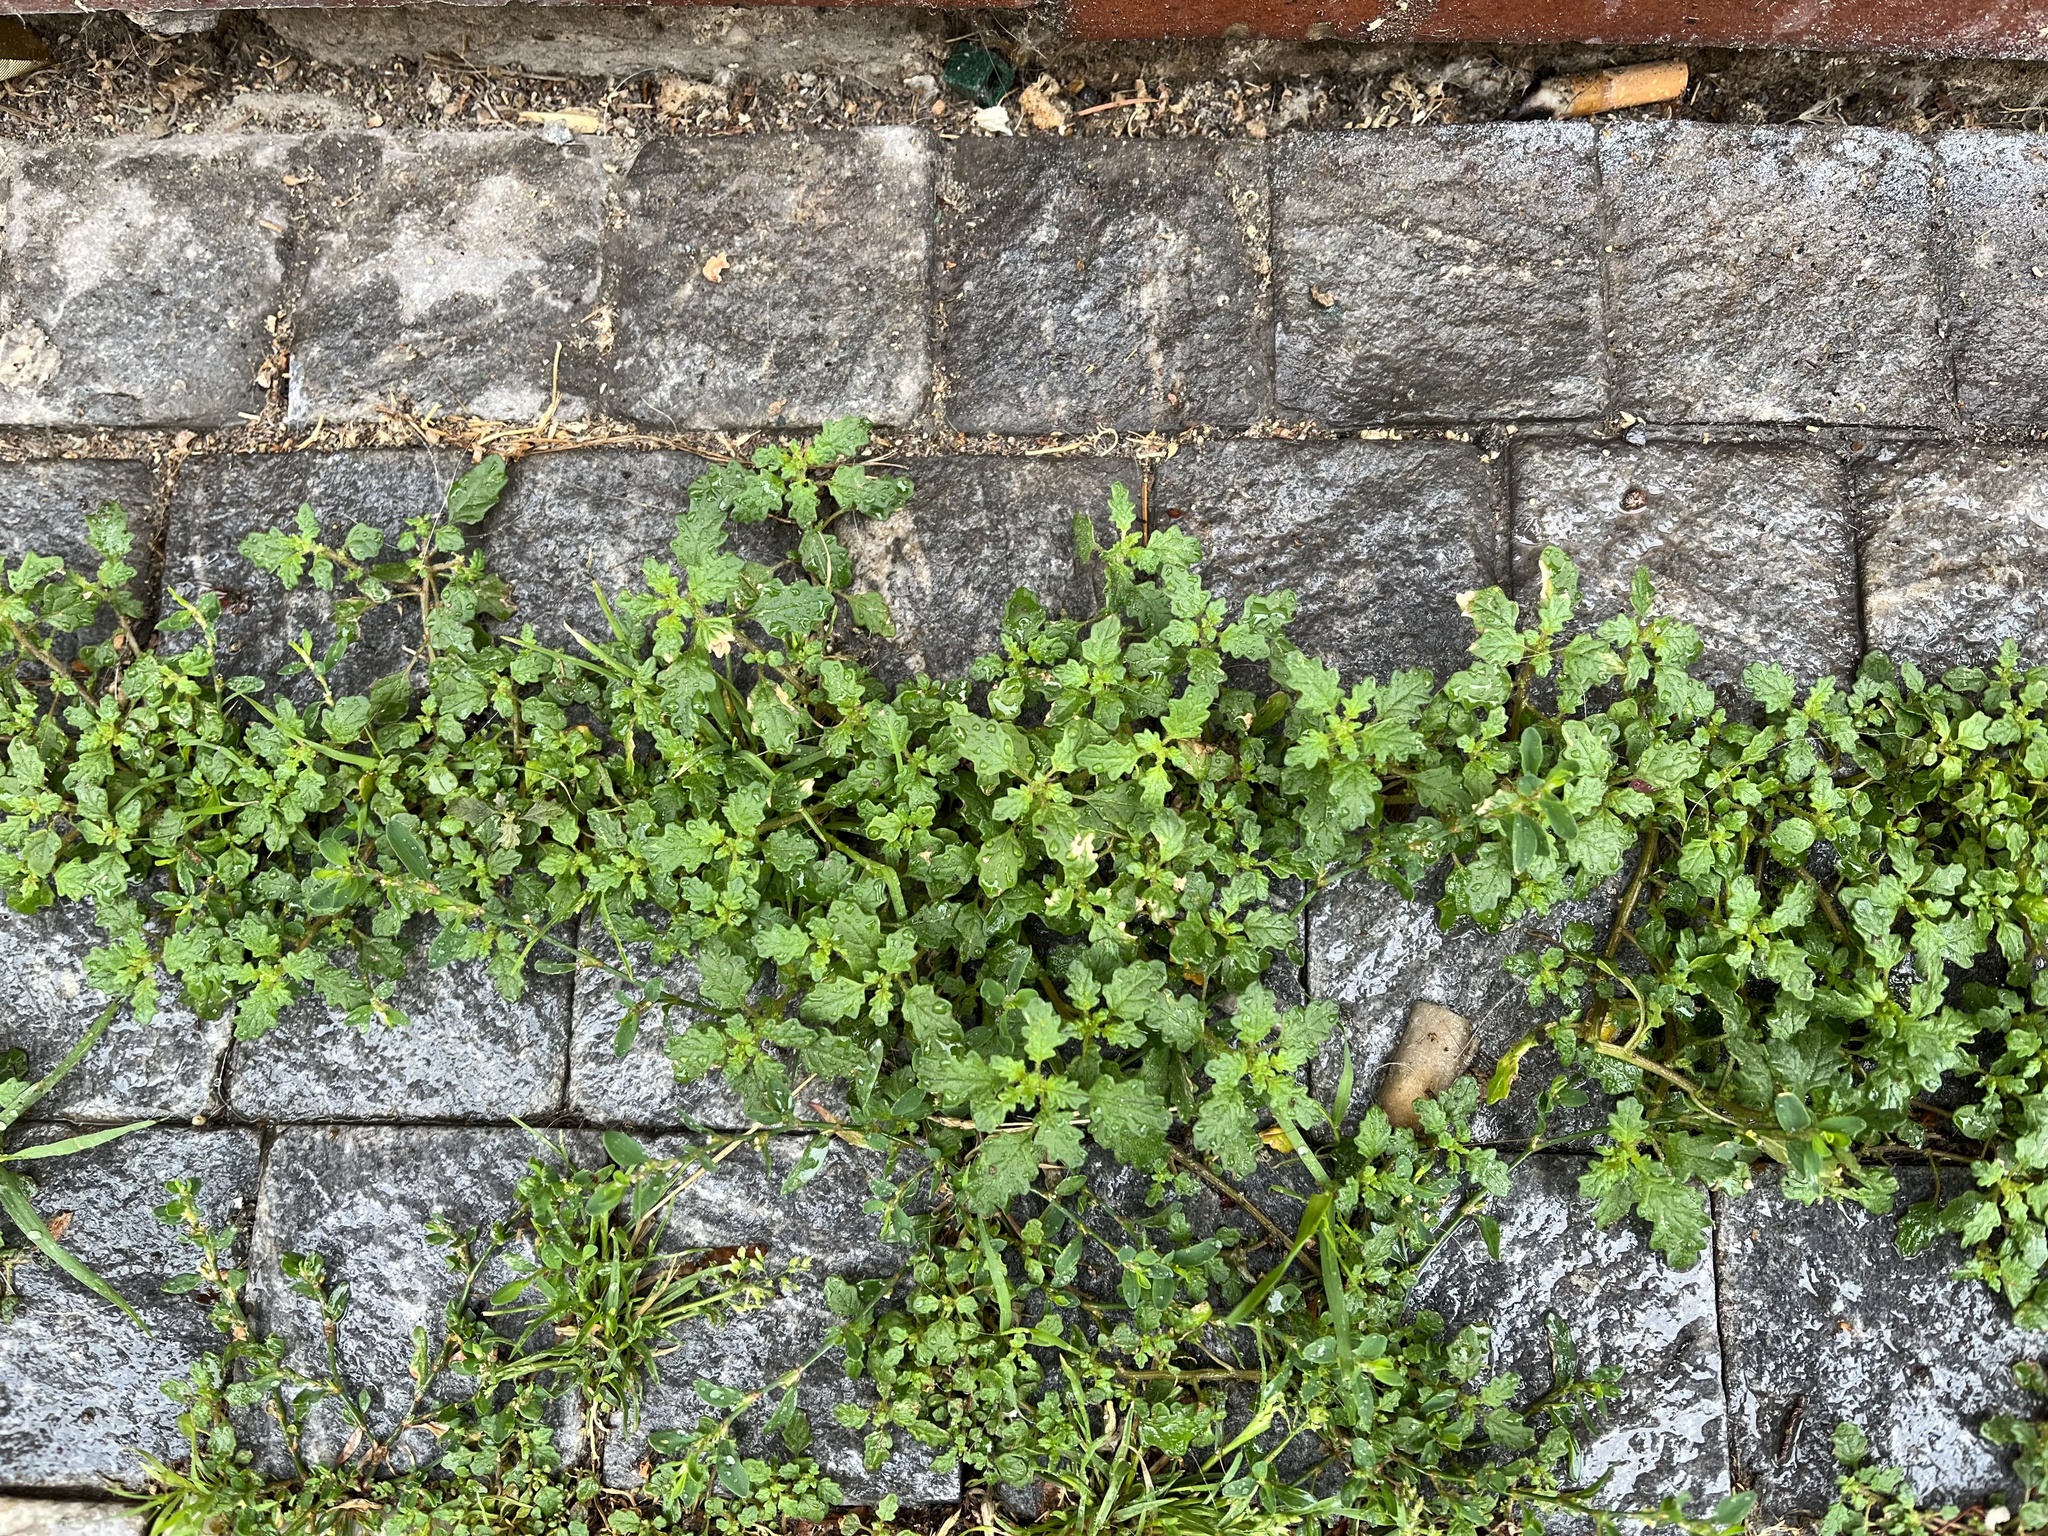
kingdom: Plantae
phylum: Tracheophyta
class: Magnoliopsida
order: Caryophyllales
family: Amaranthaceae
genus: Dysphania
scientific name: Dysphania pumilio
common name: Clammy goosefoot
